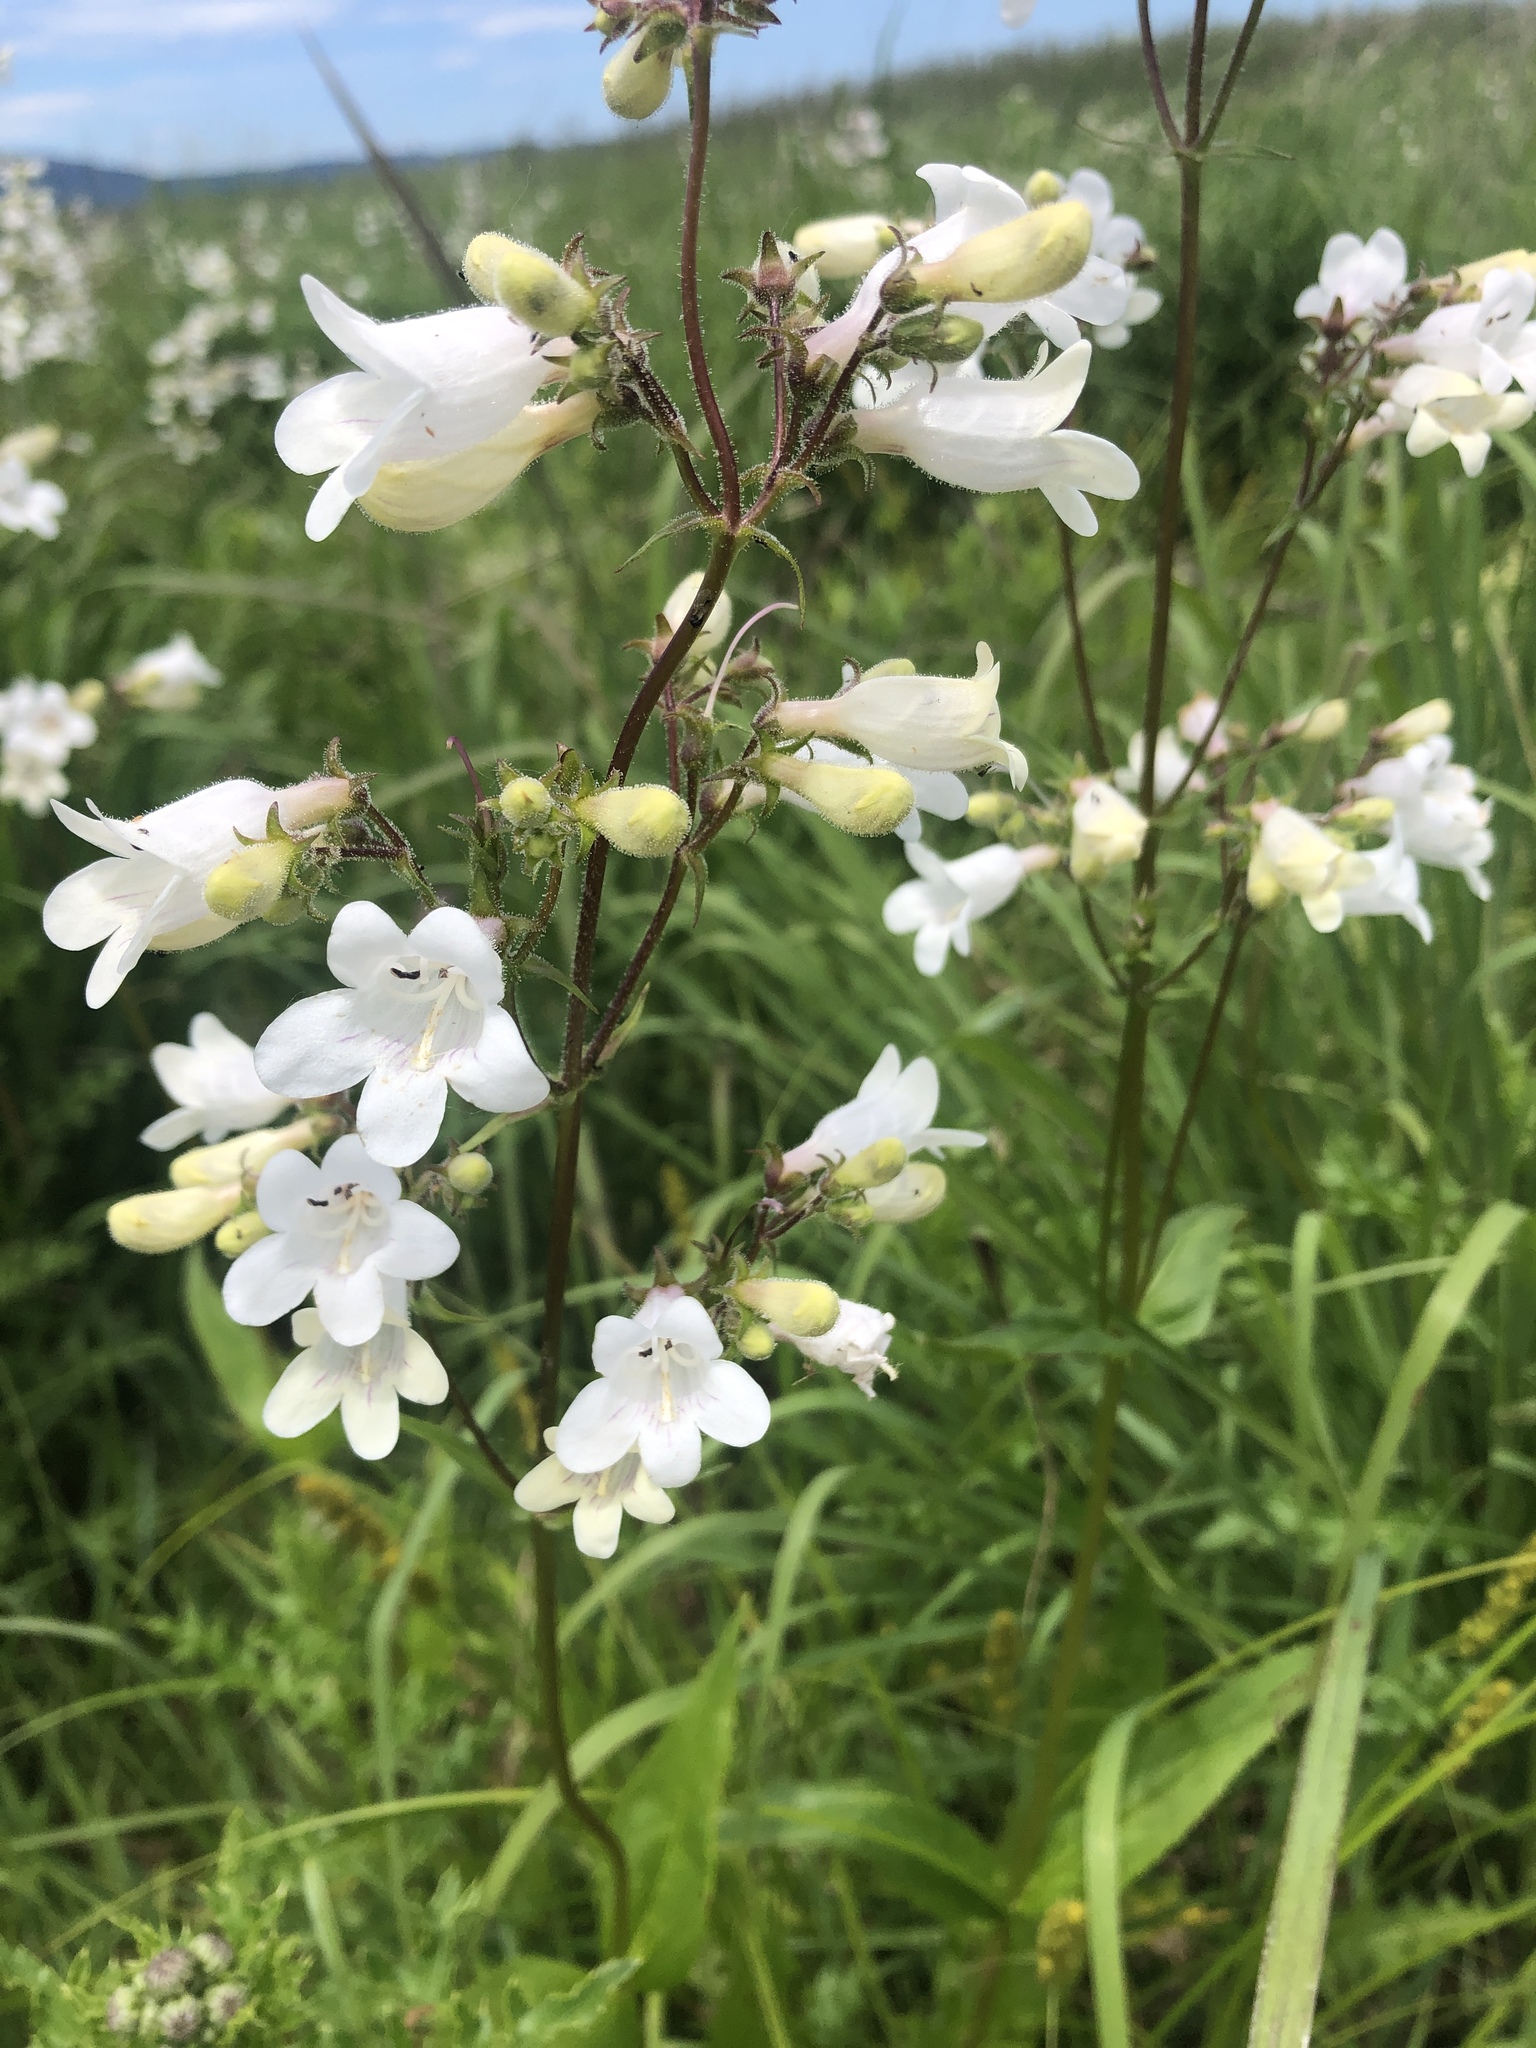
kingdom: Plantae
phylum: Tracheophyta
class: Magnoliopsida
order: Lamiales
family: Plantaginaceae
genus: Penstemon
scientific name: Penstemon digitalis
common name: Foxglove beardtongue
